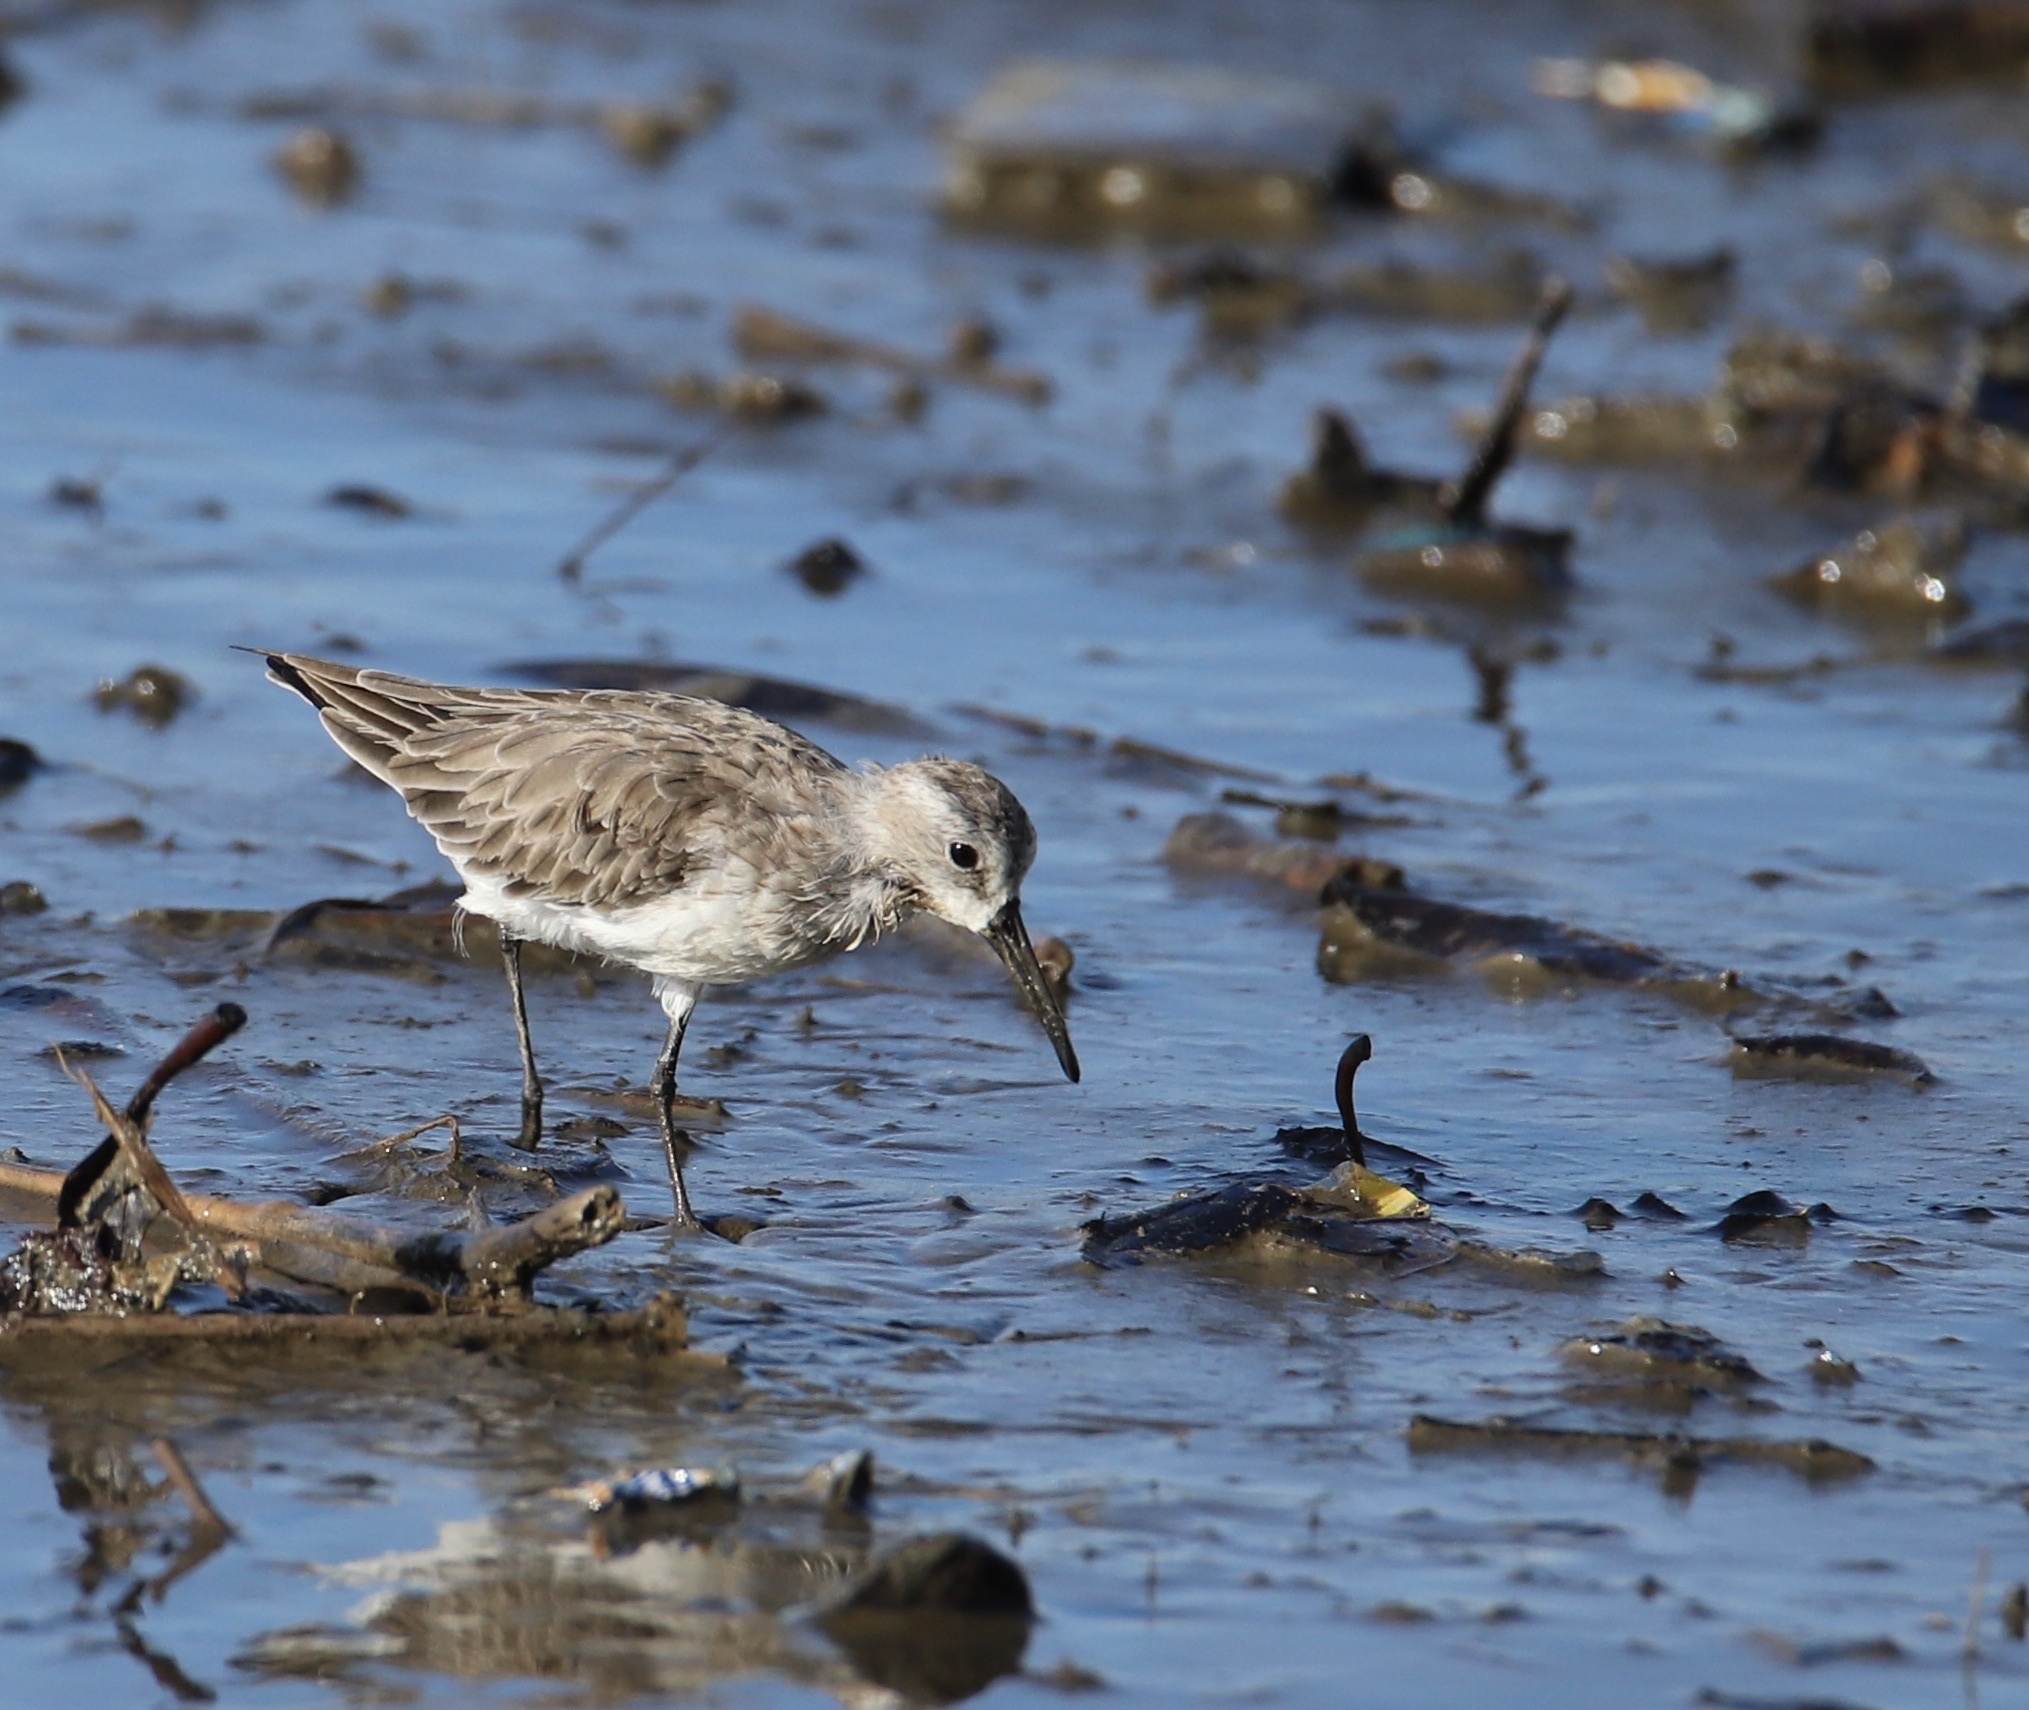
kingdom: Animalia
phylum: Chordata
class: Aves
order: Charadriiformes
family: Scolopacidae
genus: Calidris
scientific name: Calidris mauri
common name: Western sandpiper
